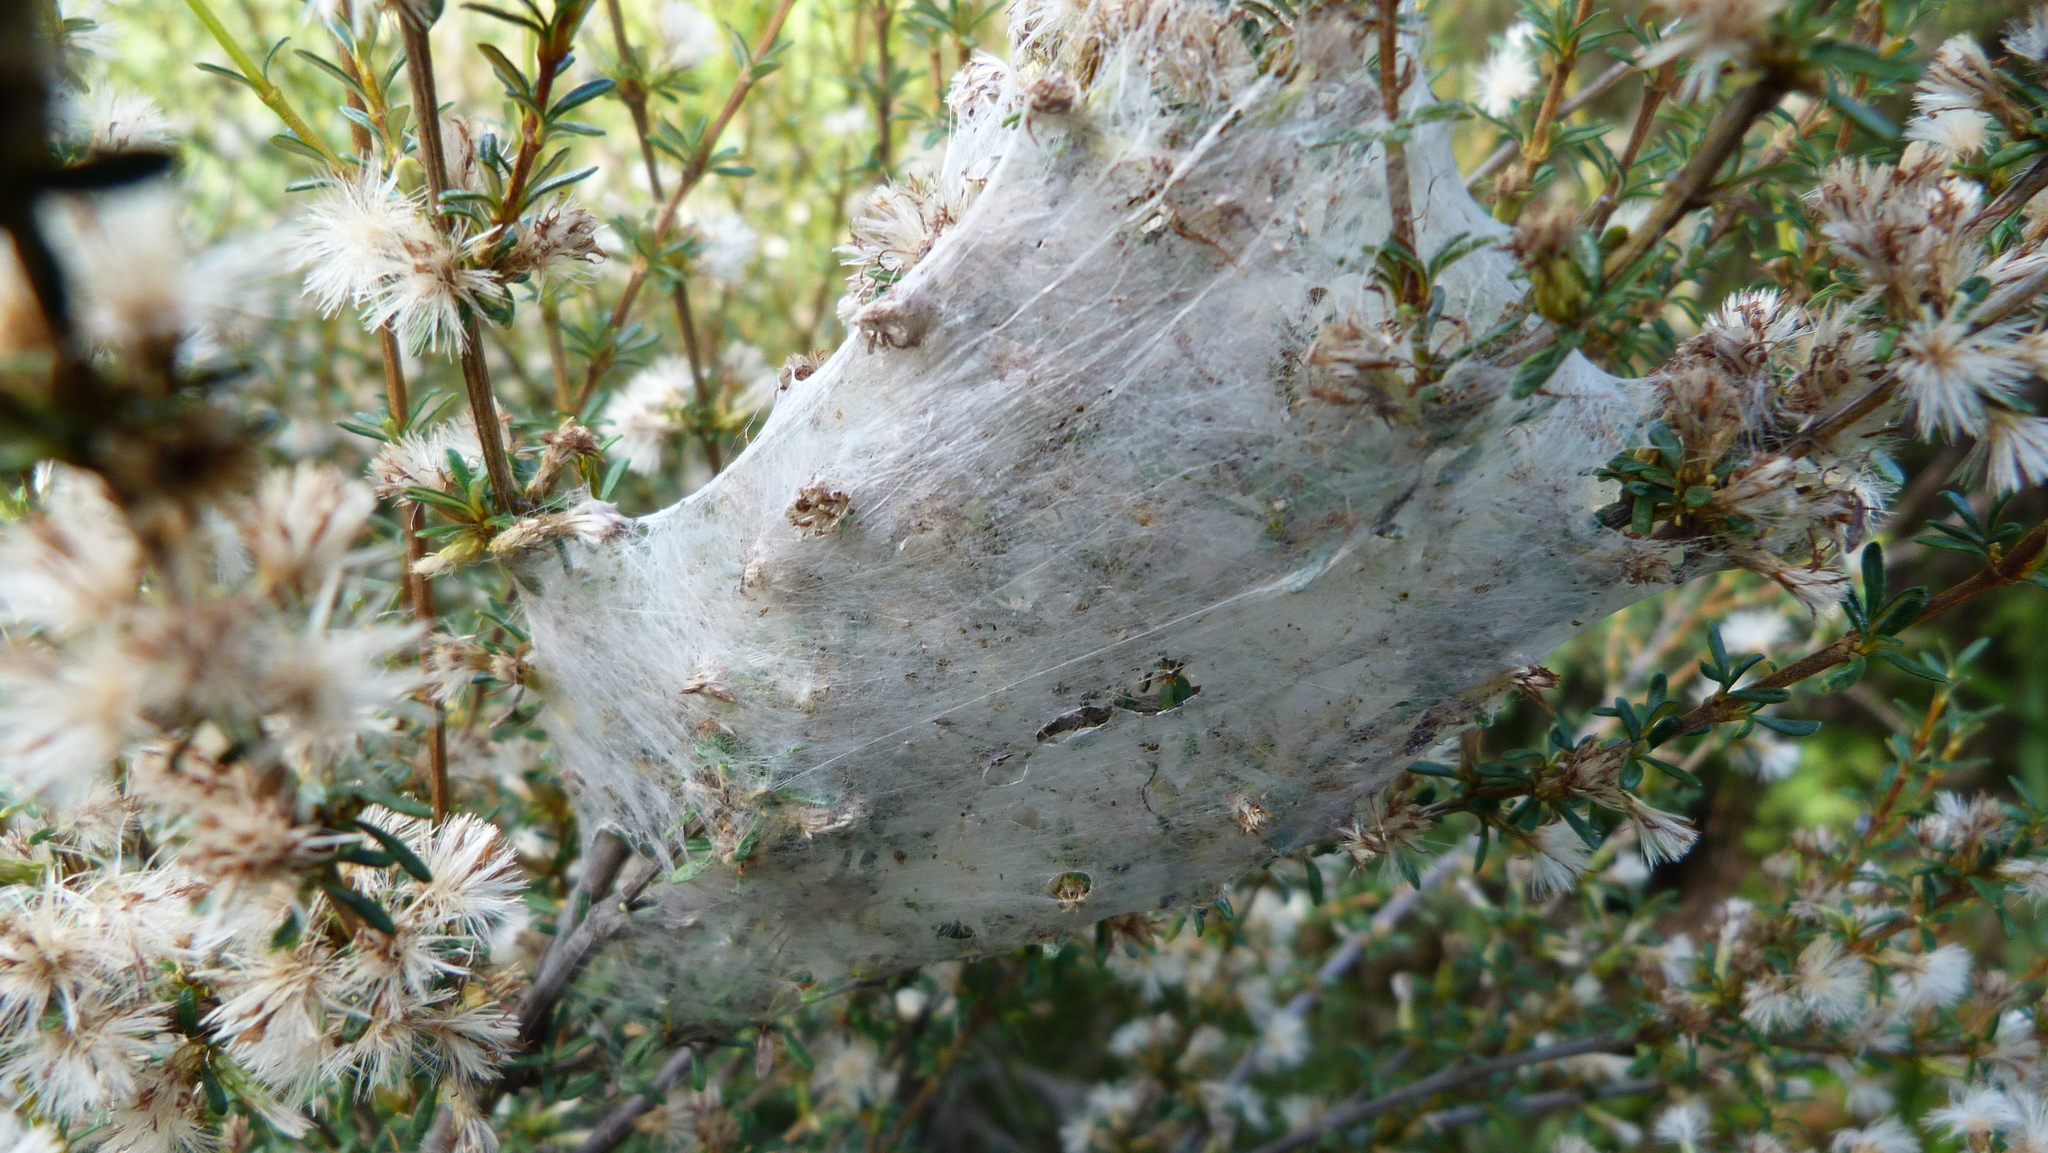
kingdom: Animalia
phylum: Arthropoda
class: Arachnida
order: Araneae
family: Pisauridae
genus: Dolomedes
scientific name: Dolomedes minor
